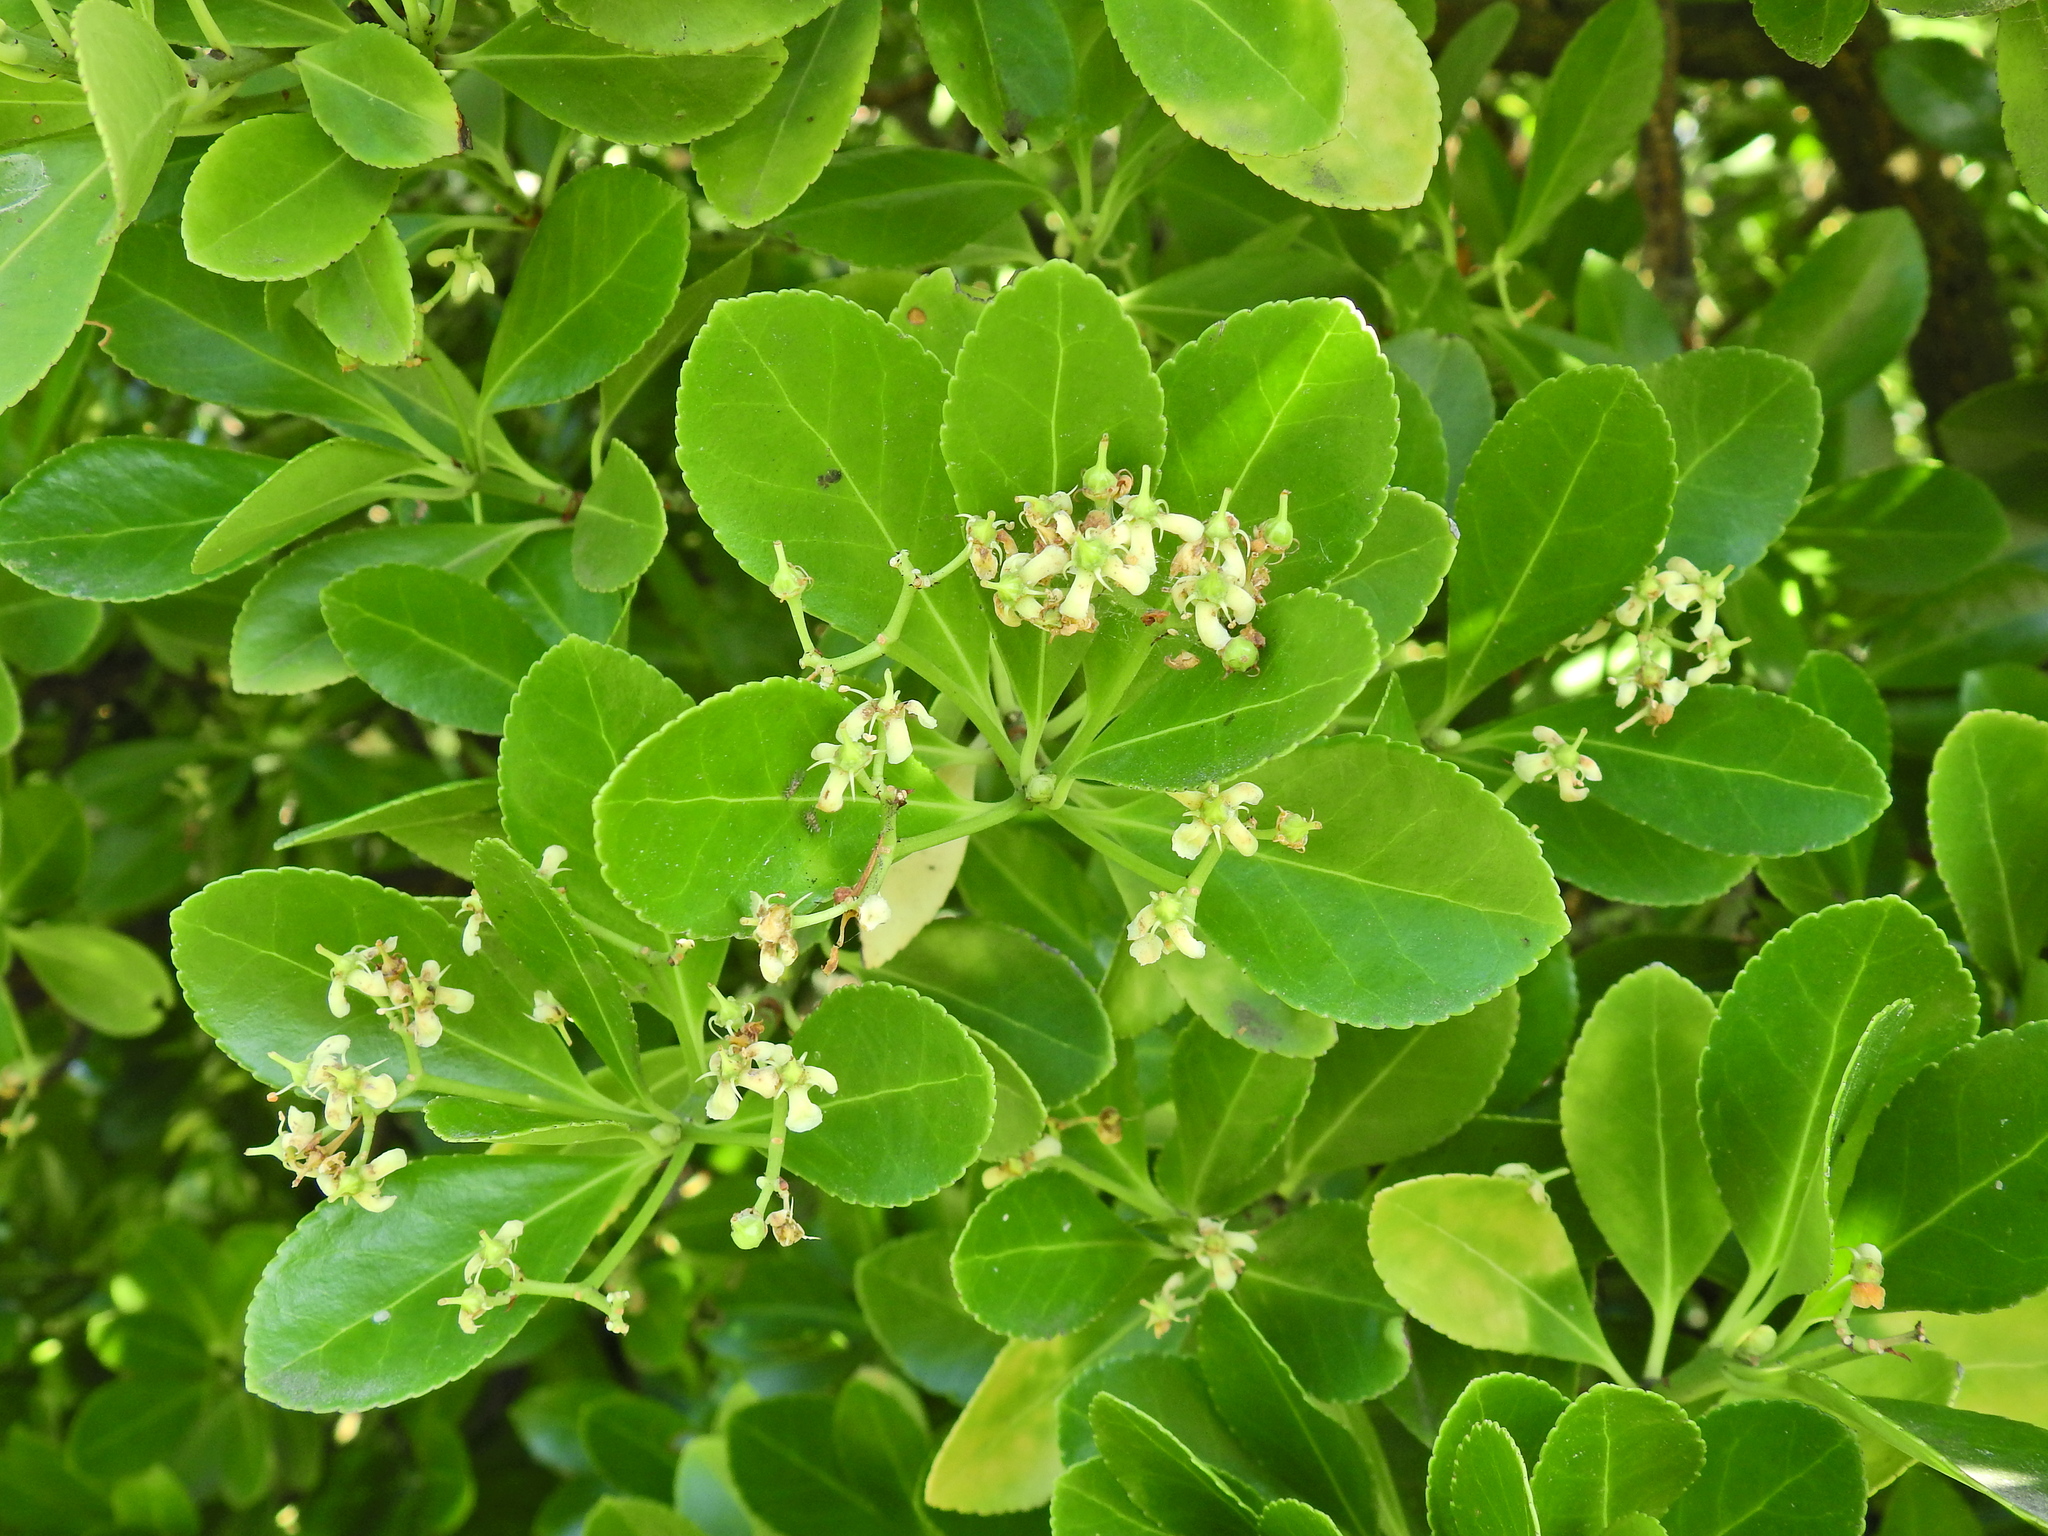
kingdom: Plantae
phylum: Tracheophyta
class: Magnoliopsida
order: Celastrales
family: Celastraceae
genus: Euonymus
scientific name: Euonymus japonicus
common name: Japanese spindletree
